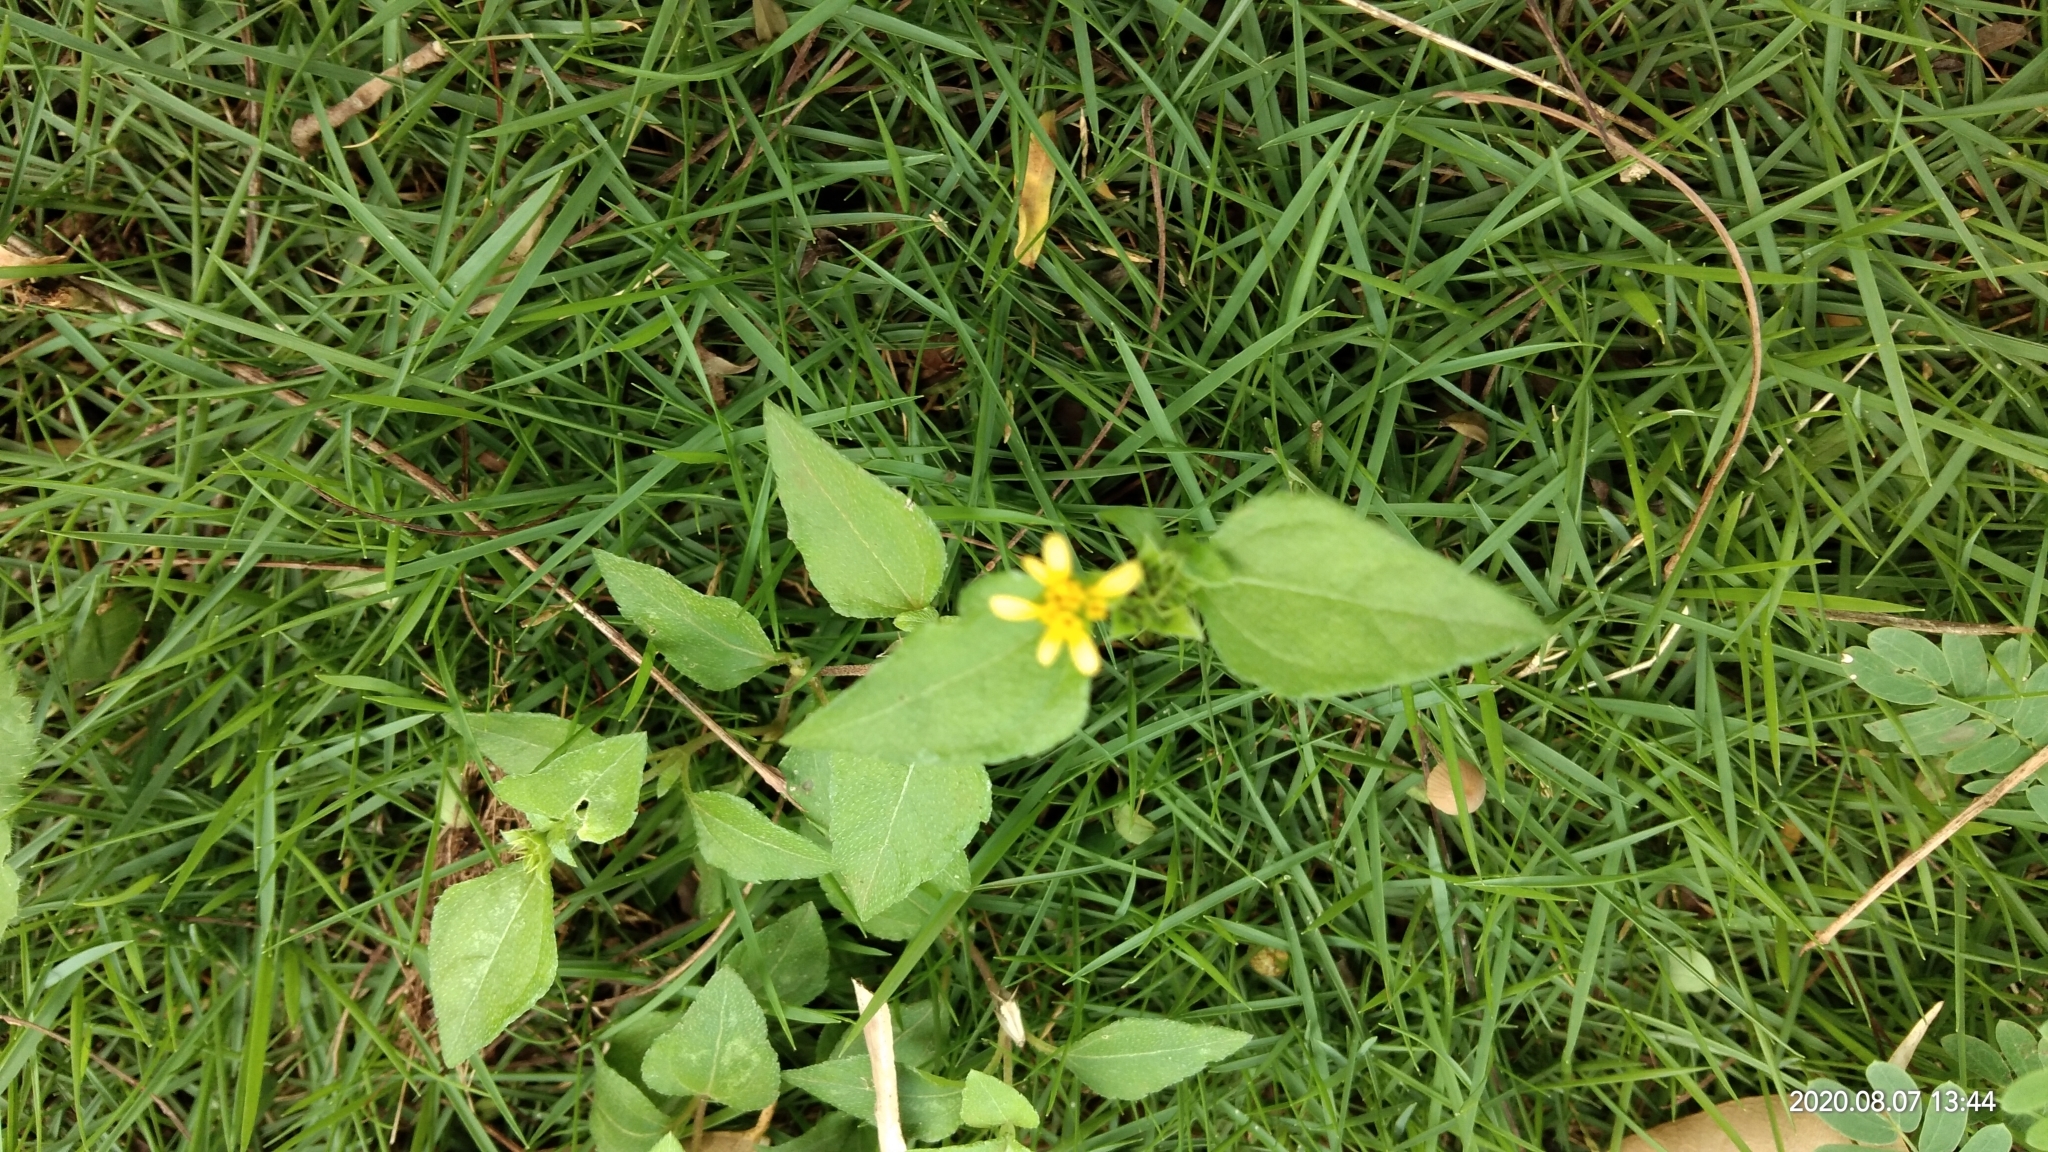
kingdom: Plantae
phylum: Tracheophyta
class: Magnoliopsida
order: Asterales
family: Asteraceae
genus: Calyptocarpus
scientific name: Calyptocarpus vialis
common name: Straggler daisy
